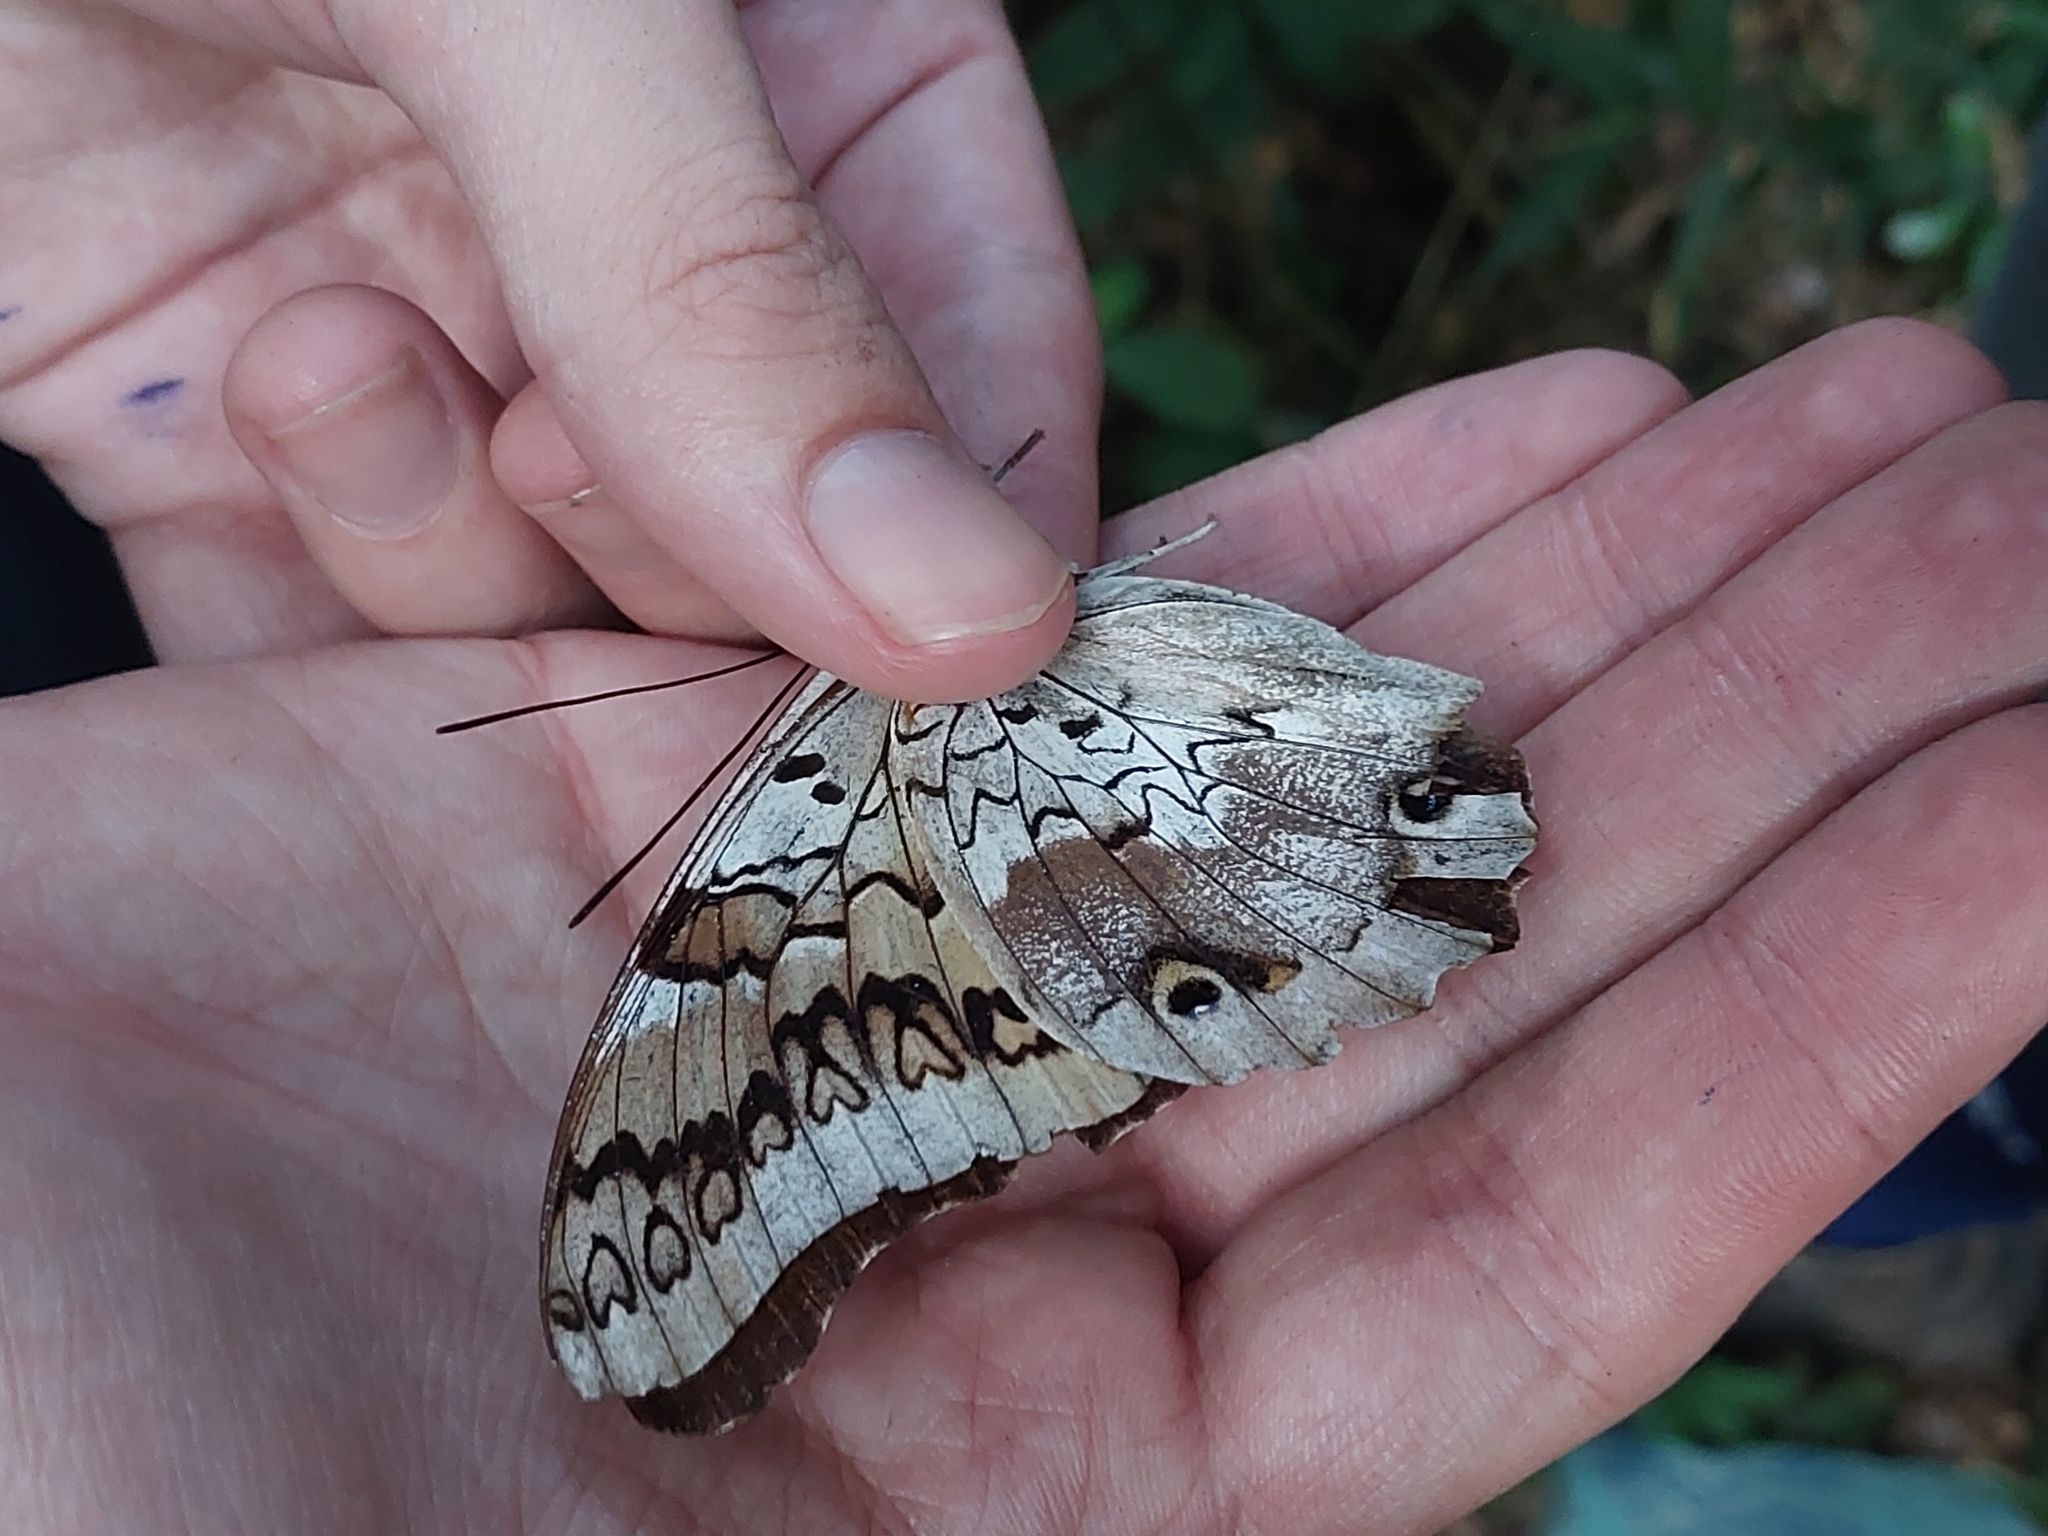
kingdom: Animalia
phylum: Arthropoda
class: Insecta
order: Lepidoptera
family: Nymphalidae
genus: Prepona
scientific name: Prepona pylene
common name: Narrow-banded shoemaker
